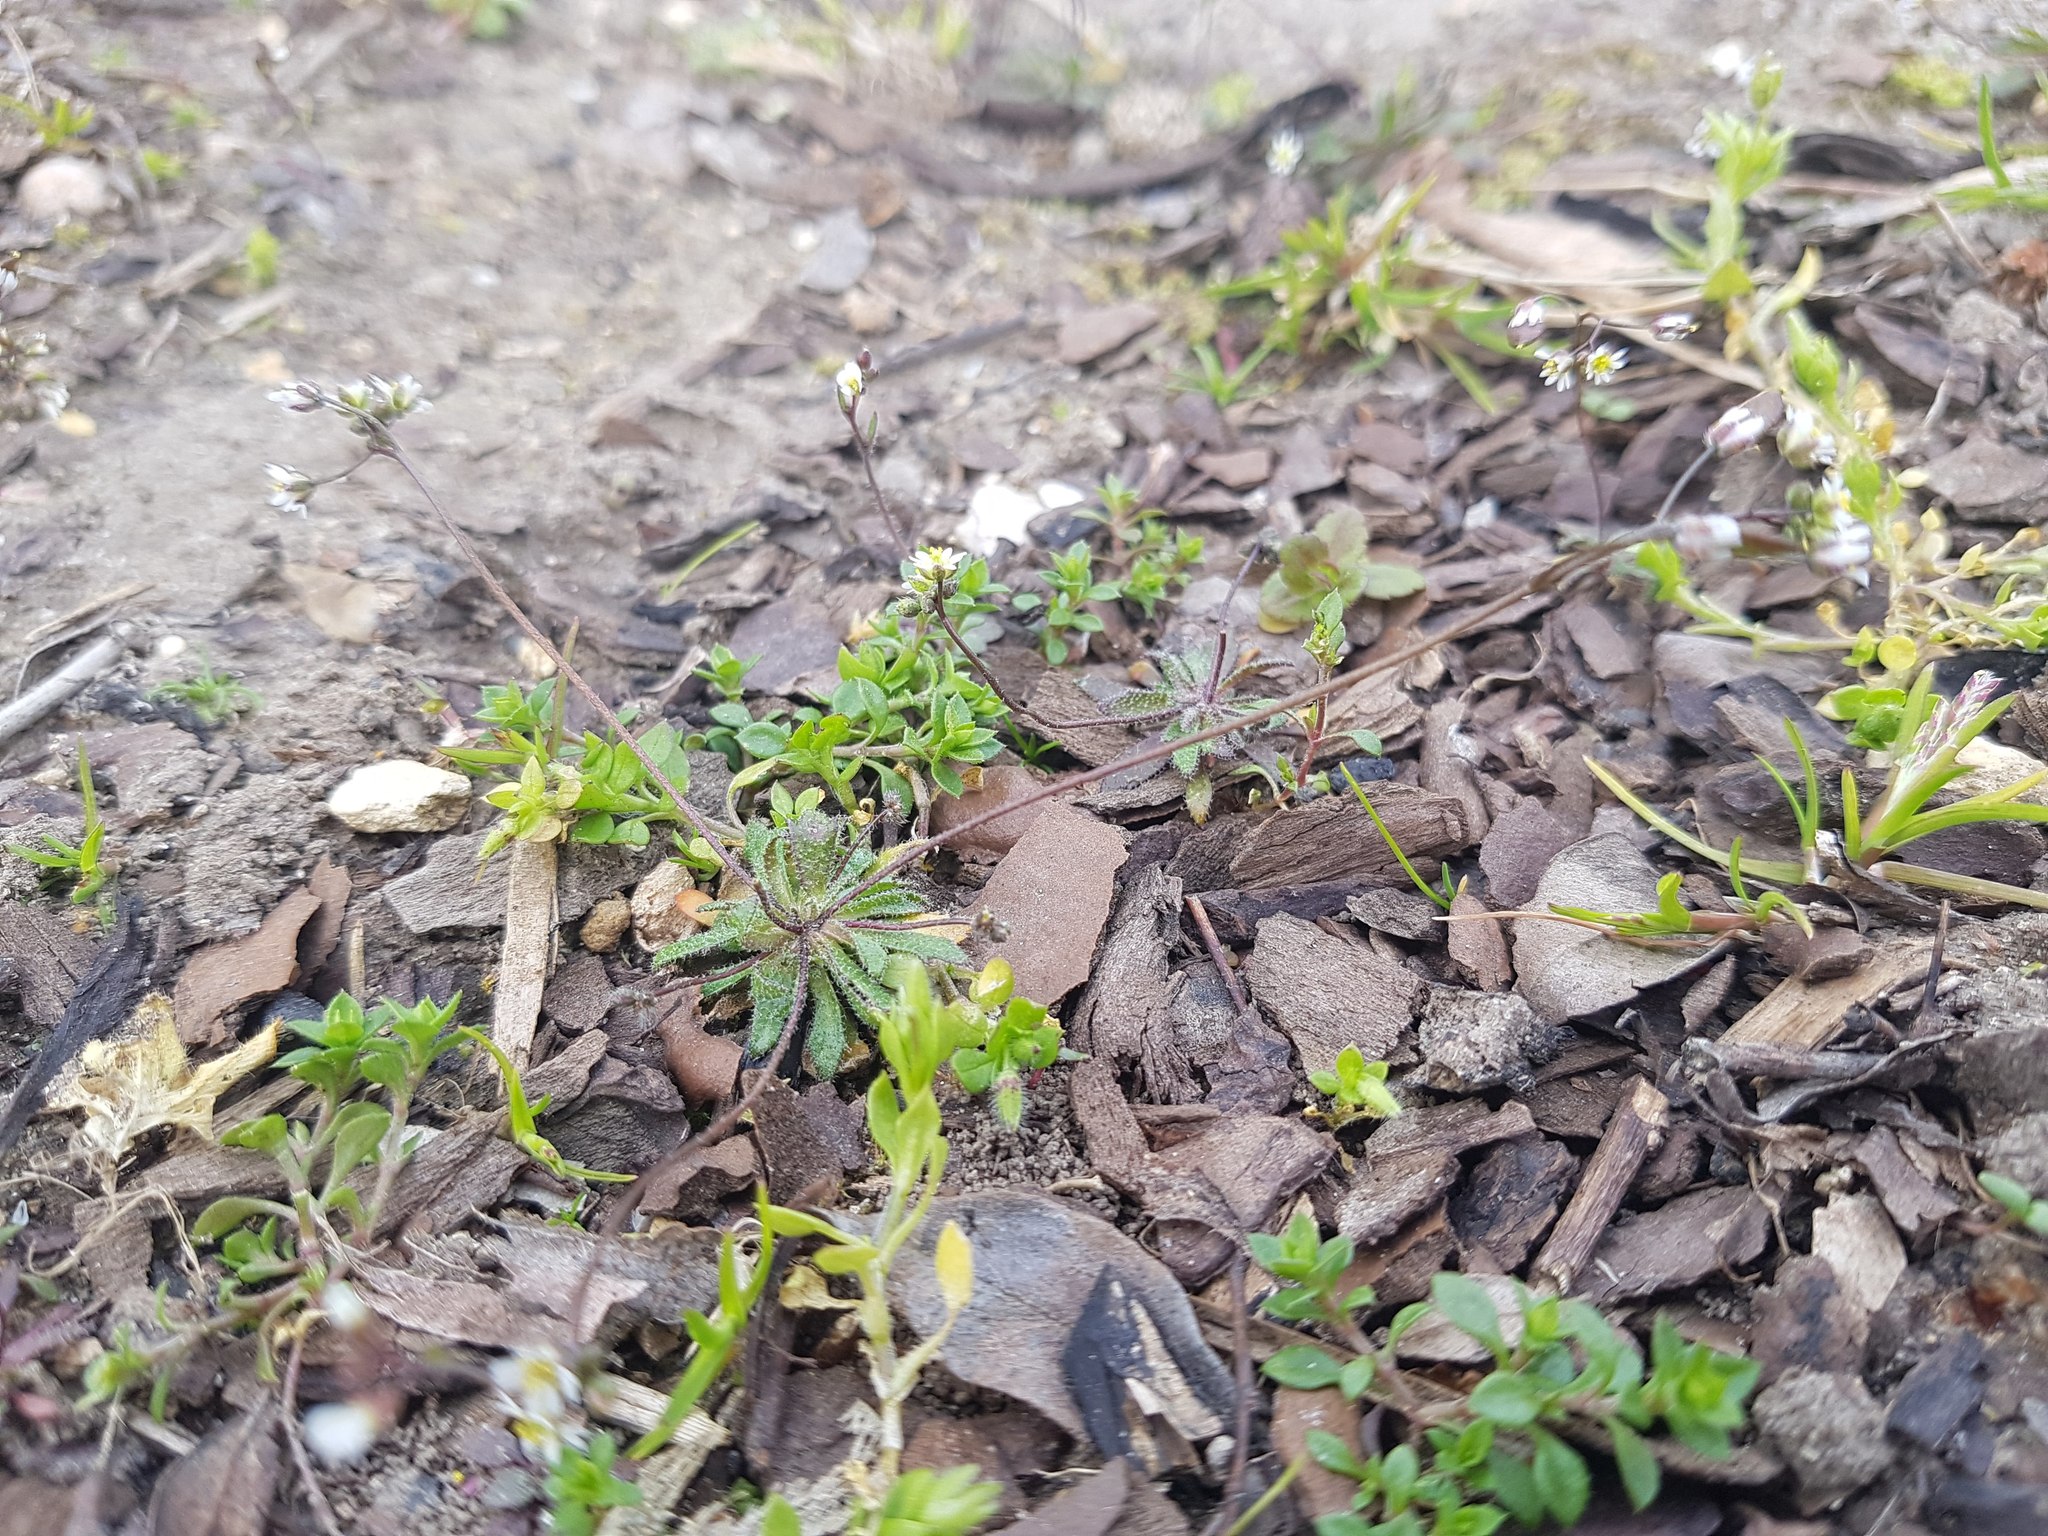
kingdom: Plantae
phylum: Tracheophyta
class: Magnoliopsida
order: Brassicales
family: Brassicaceae
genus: Draba
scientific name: Draba verna
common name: Spring draba
